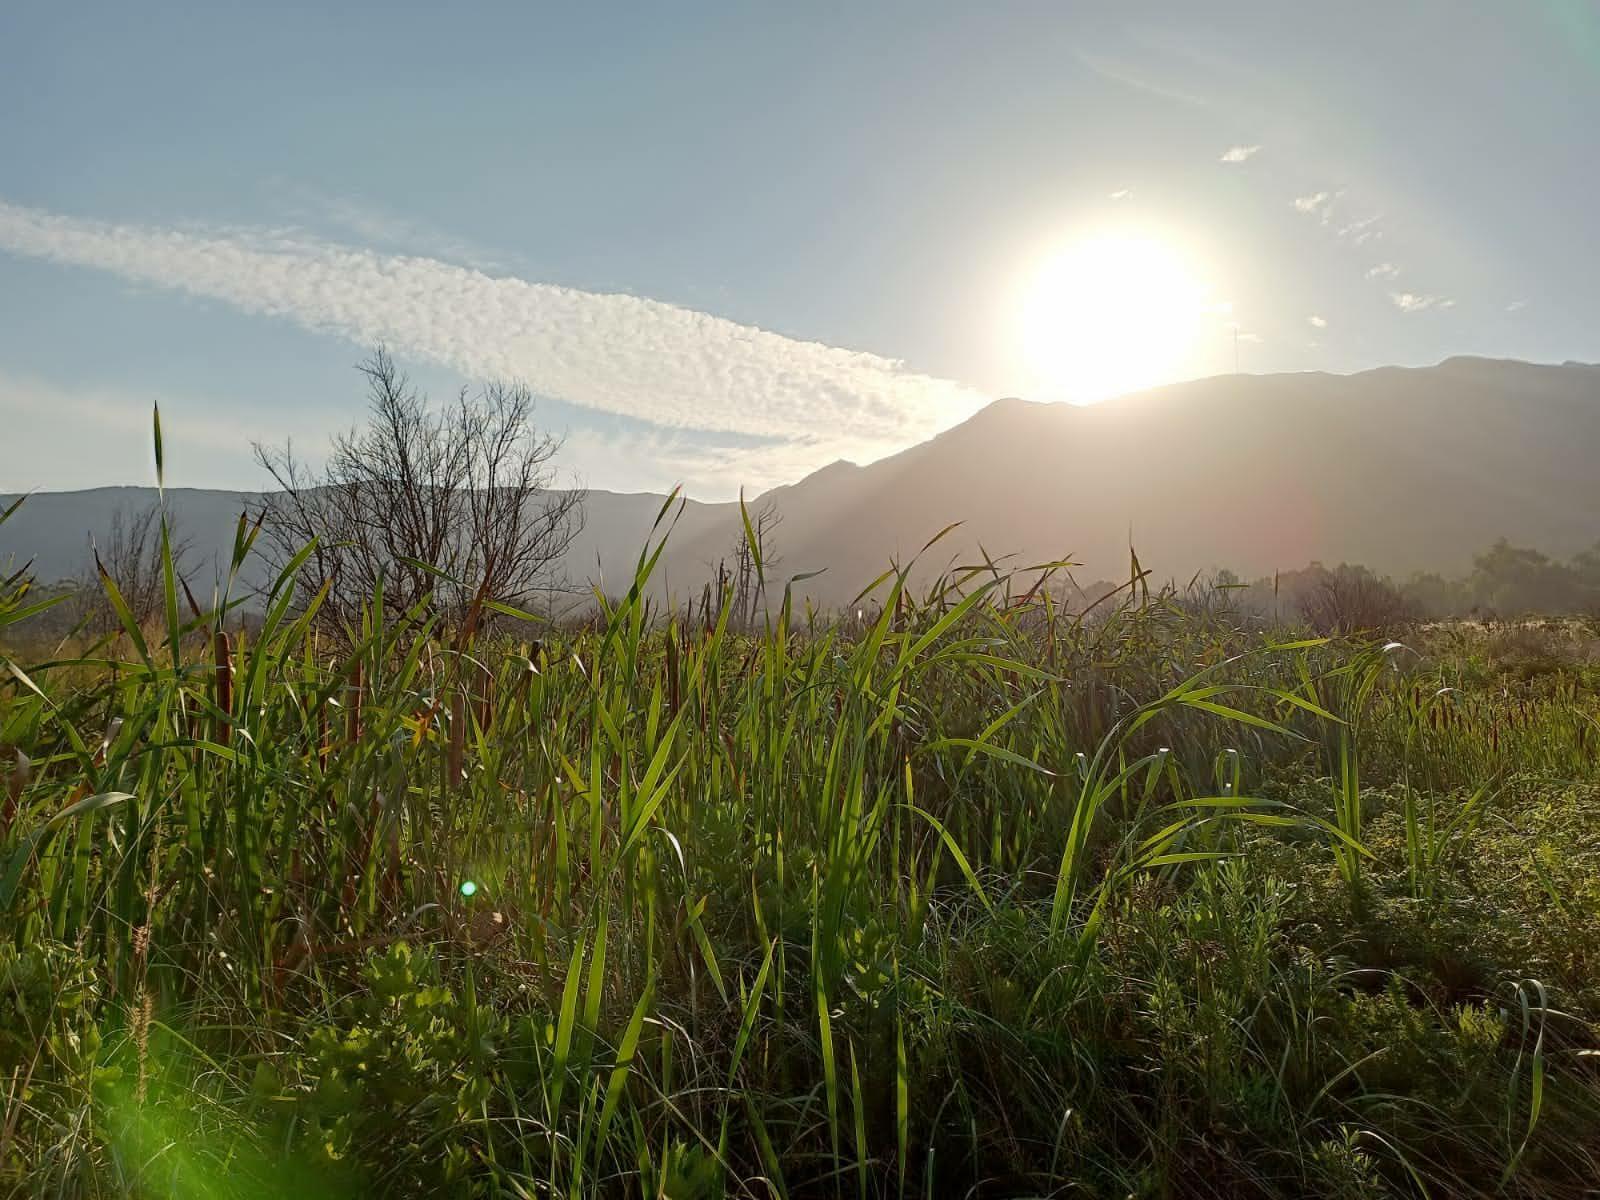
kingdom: Plantae
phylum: Tracheophyta
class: Liliopsida
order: Poales
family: Typhaceae
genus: Typha
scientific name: Typha capensis
